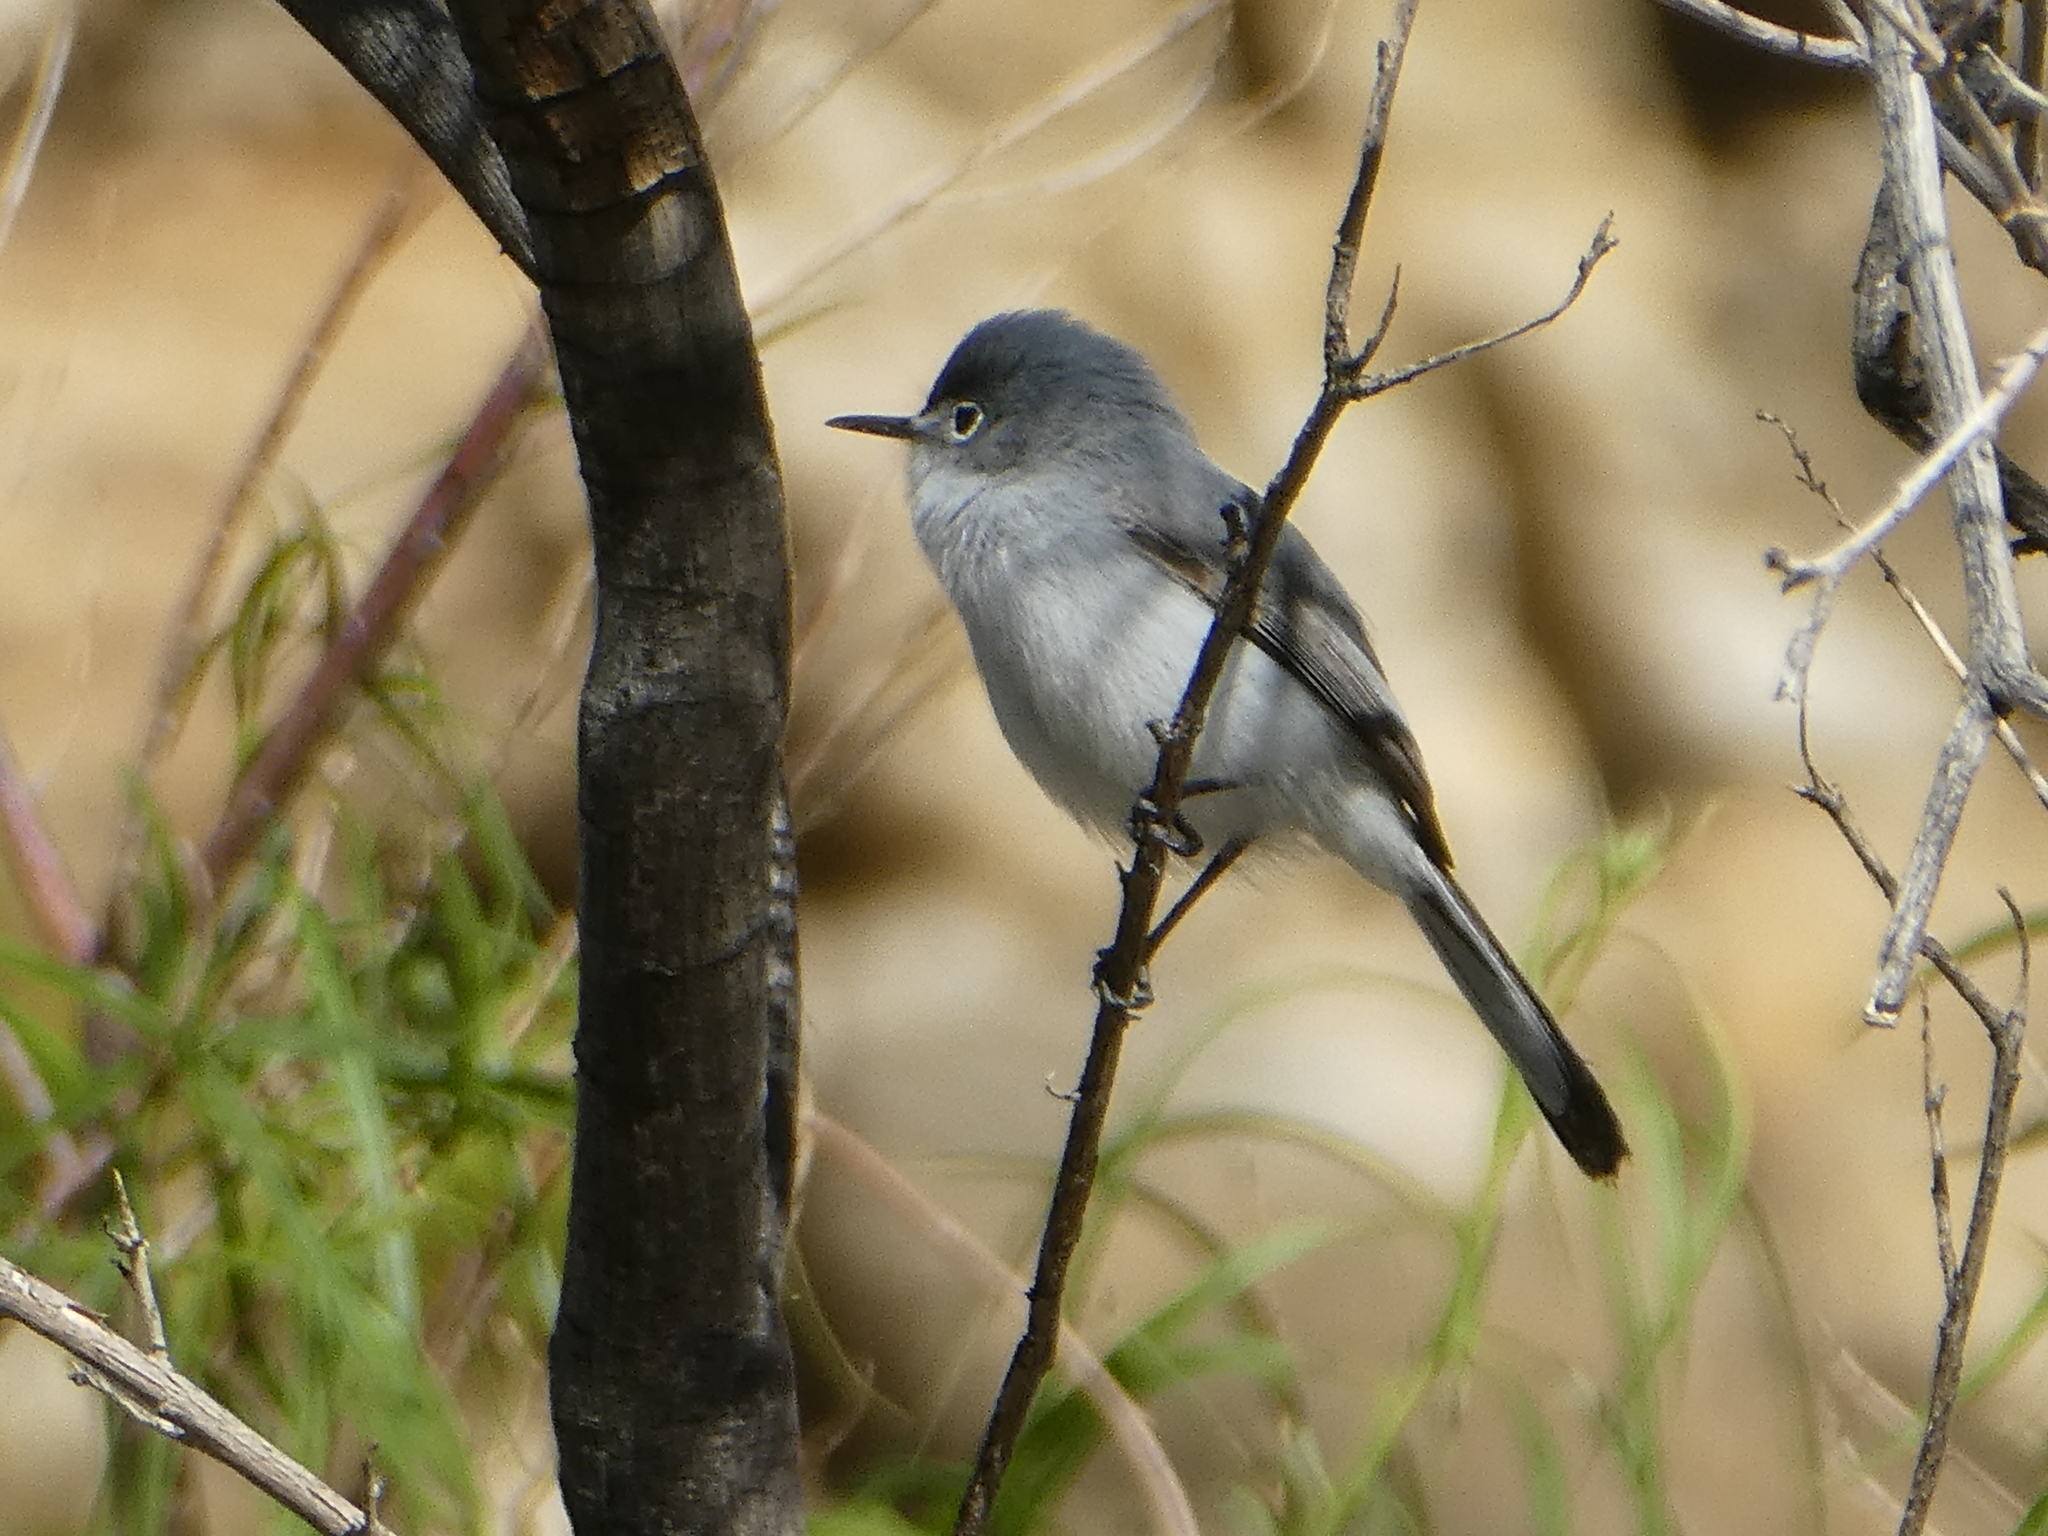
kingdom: Animalia
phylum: Chordata
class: Aves
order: Passeriformes
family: Polioptilidae
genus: Polioptila
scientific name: Polioptila caerulea
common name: Blue-gray gnatcatcher
